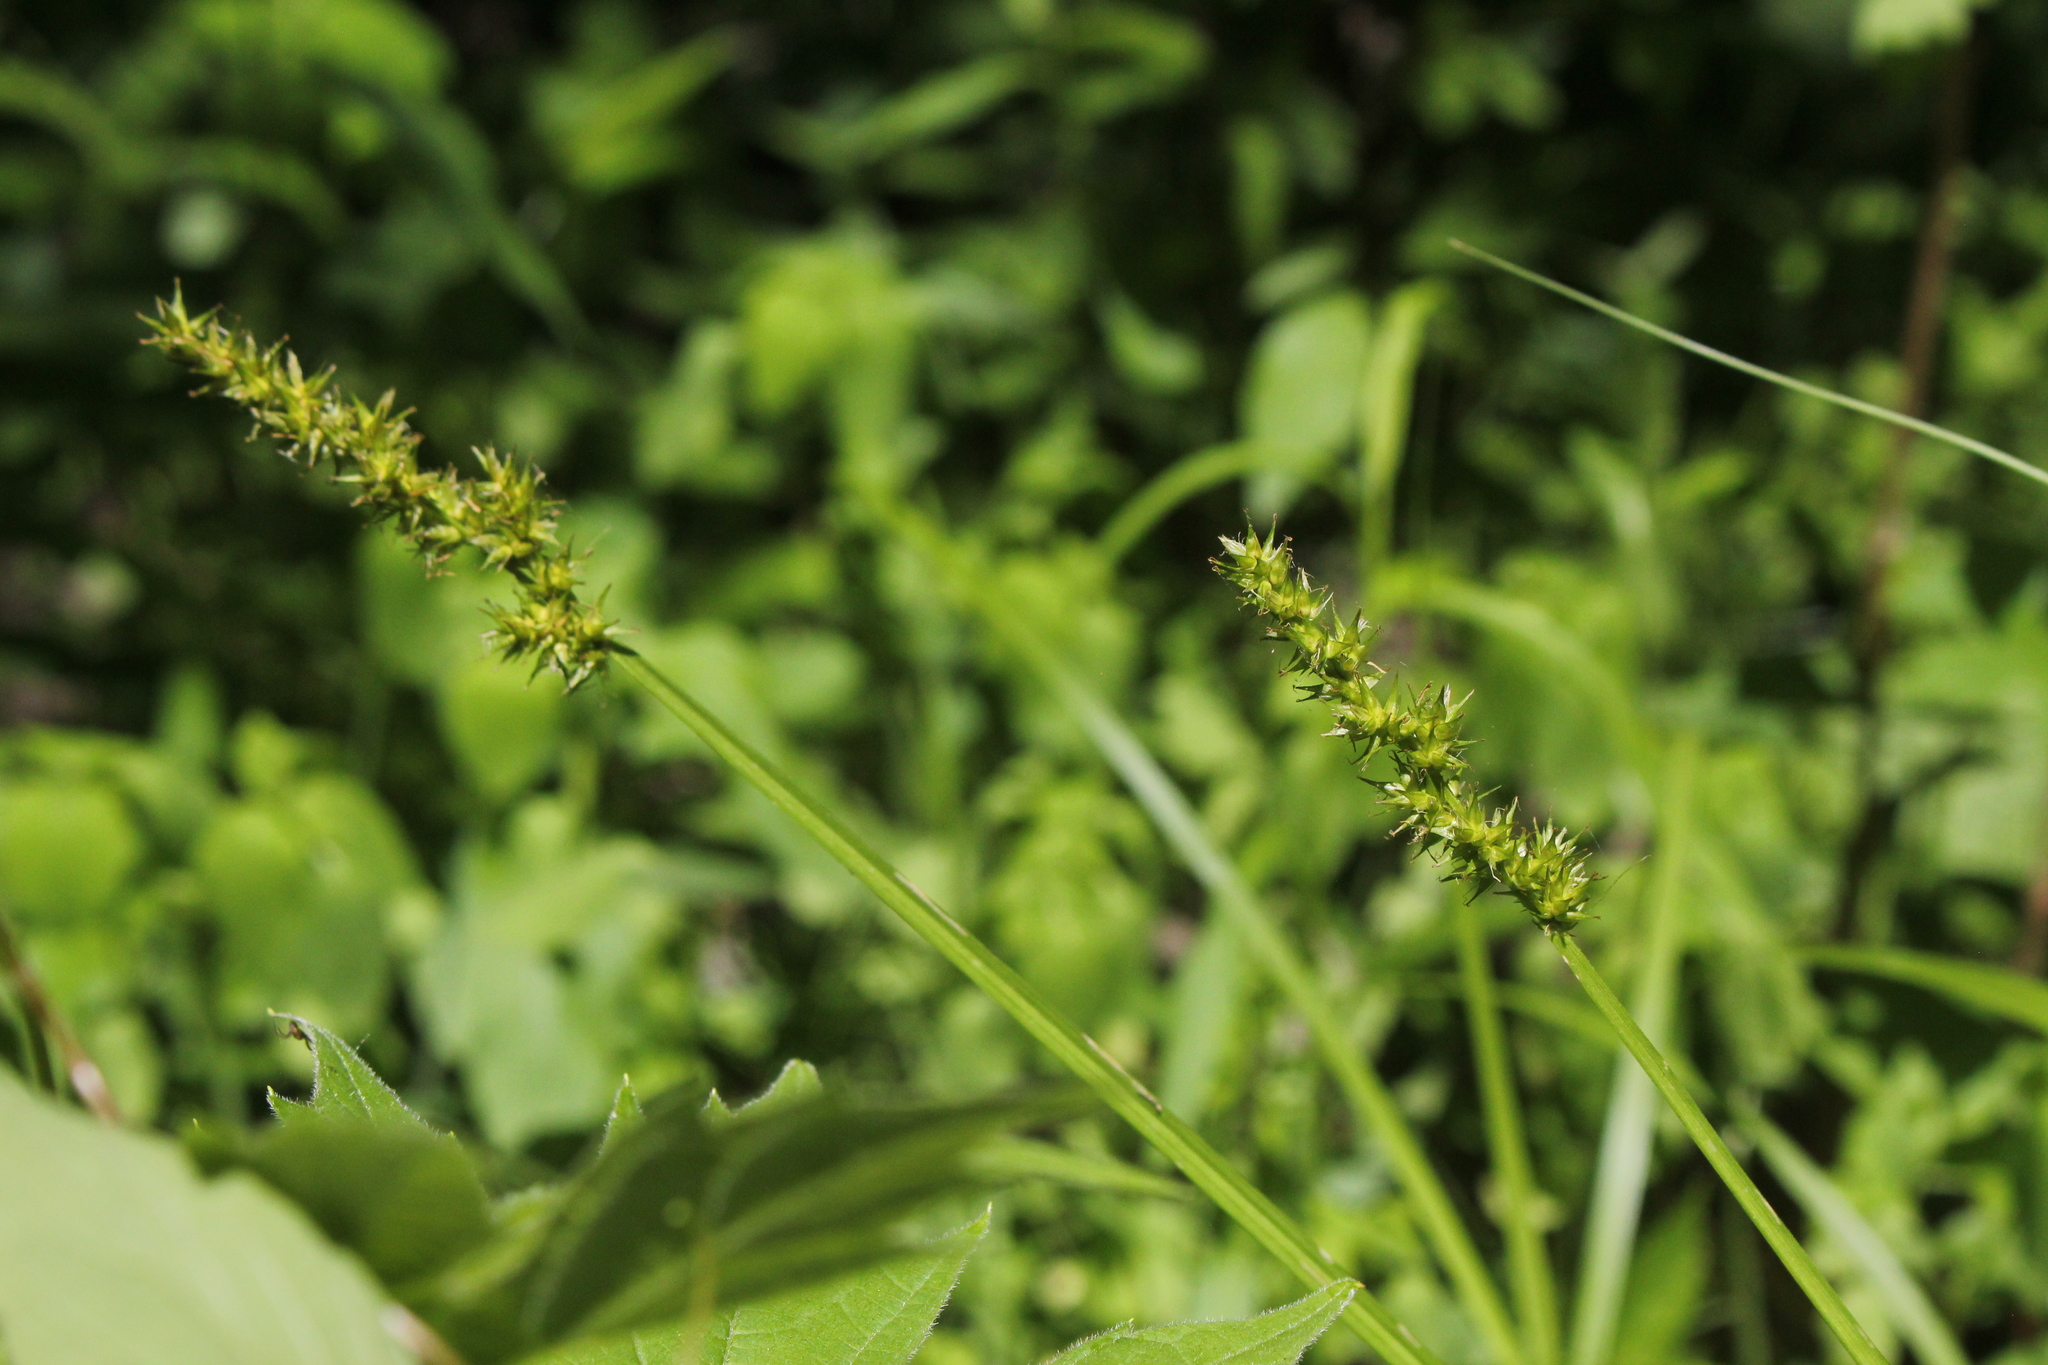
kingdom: Plantae
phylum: Tracheophyta
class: Liliopsida
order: Poales
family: Cyperaceae
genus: Carex
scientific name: Carex stipata
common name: Awl-fruited sedge
